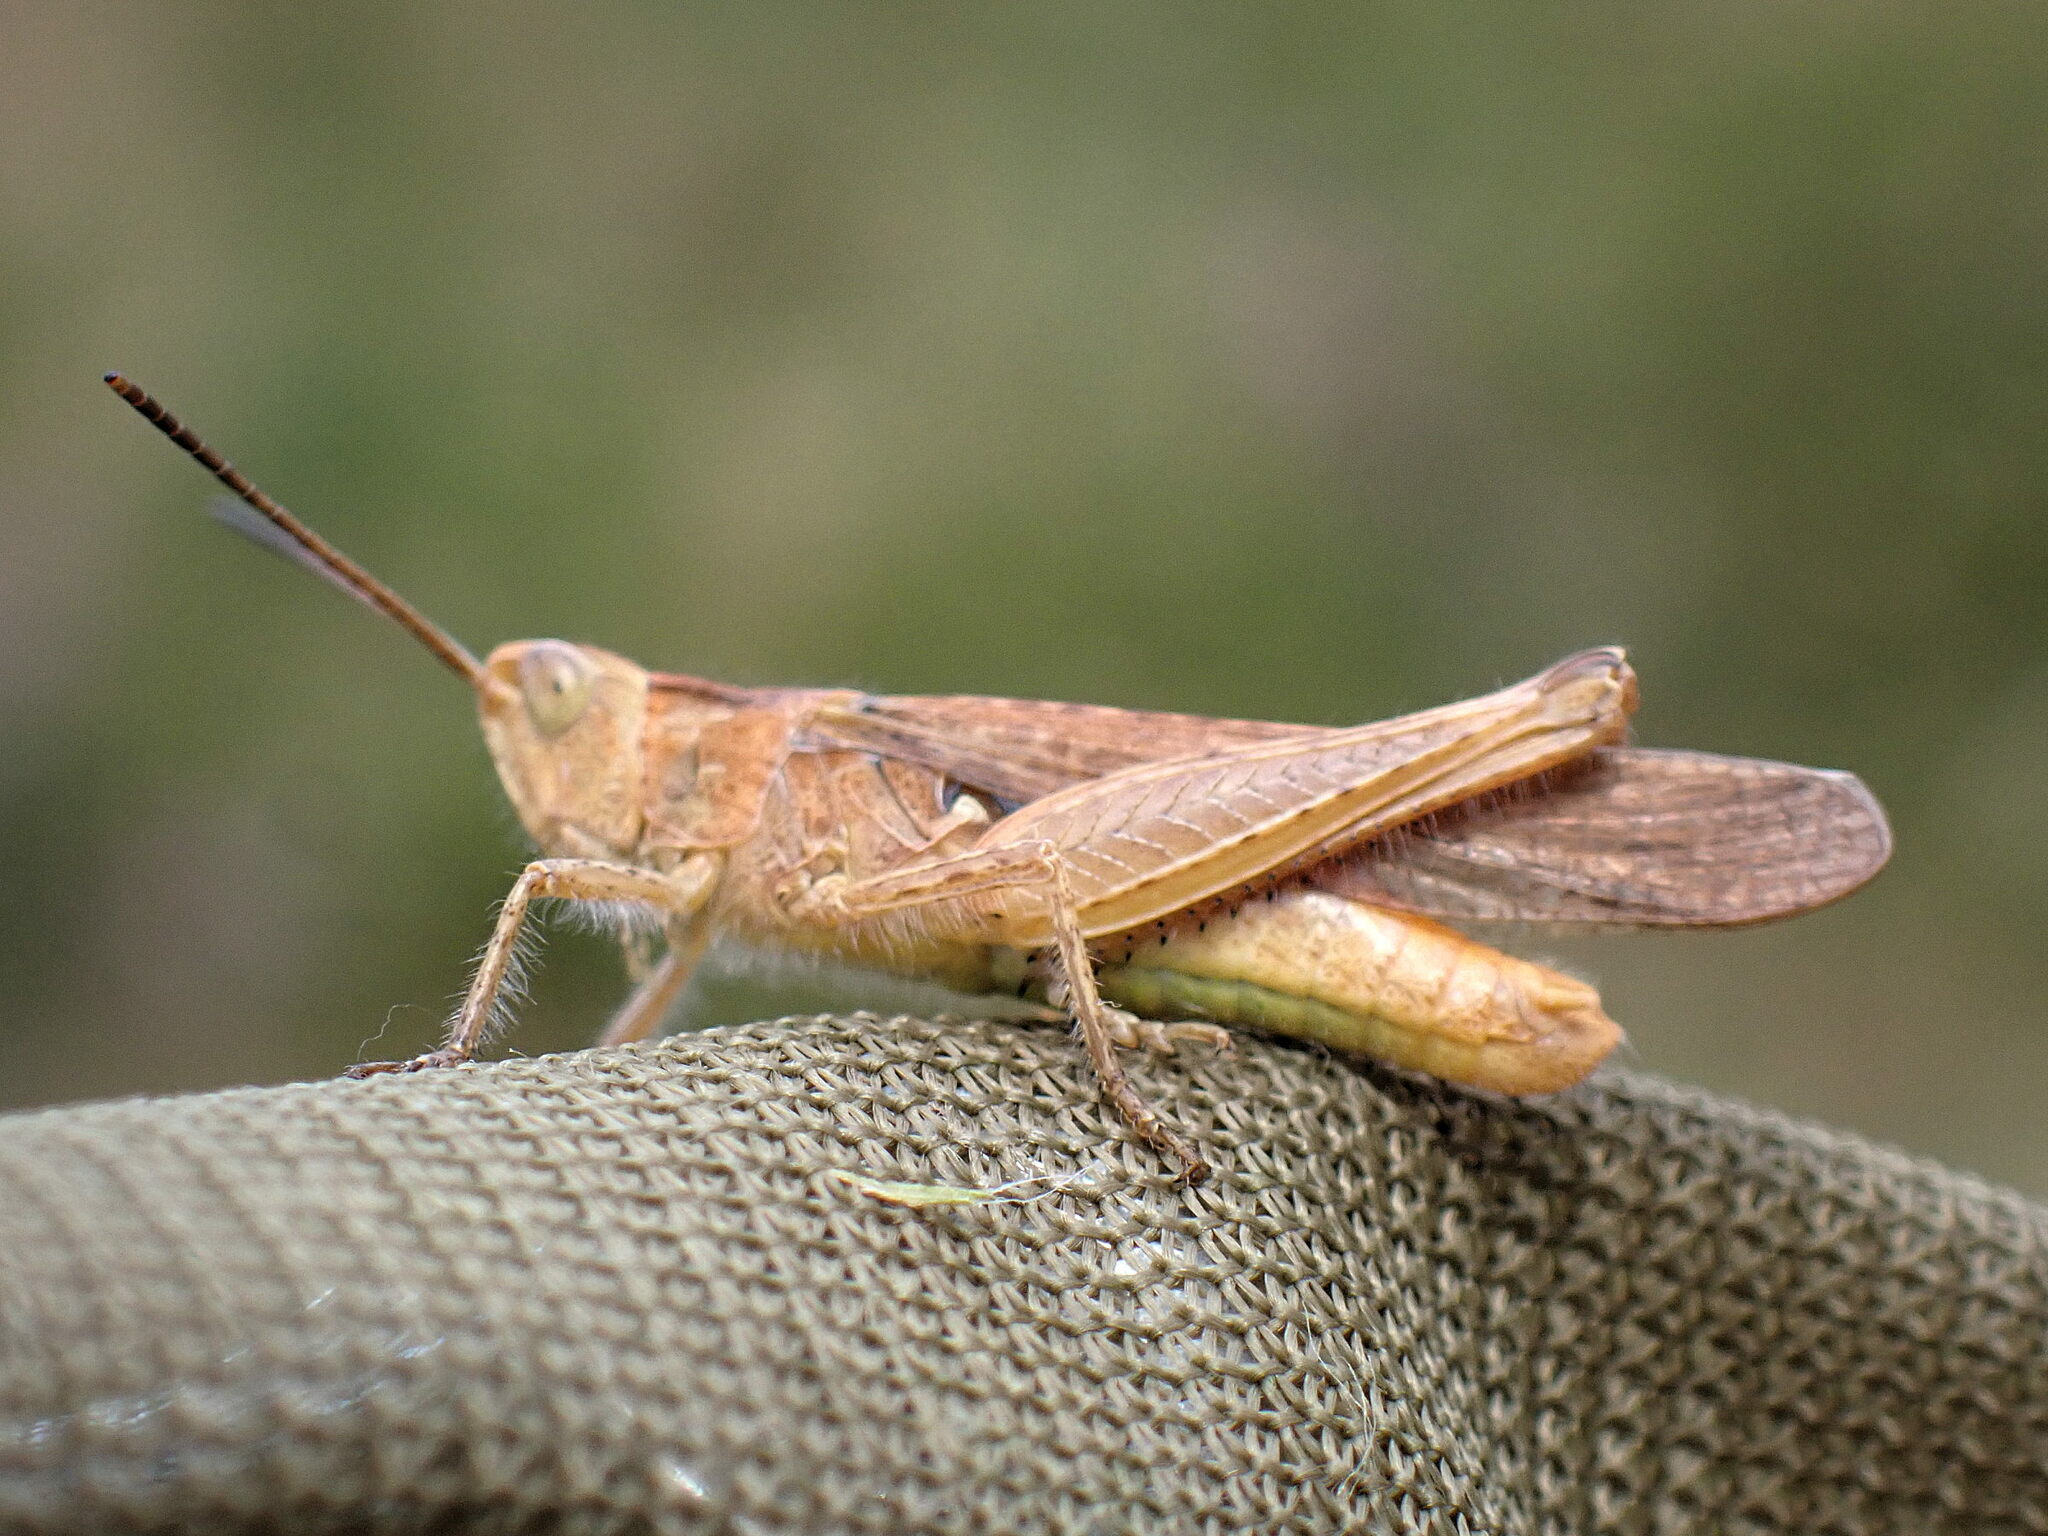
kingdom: Animalia
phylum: Arthropoda
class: Insecta
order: Orthoptera
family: Acrididae
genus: Chorthippus
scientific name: Chorthippus brunneus
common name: Field grasshopper
